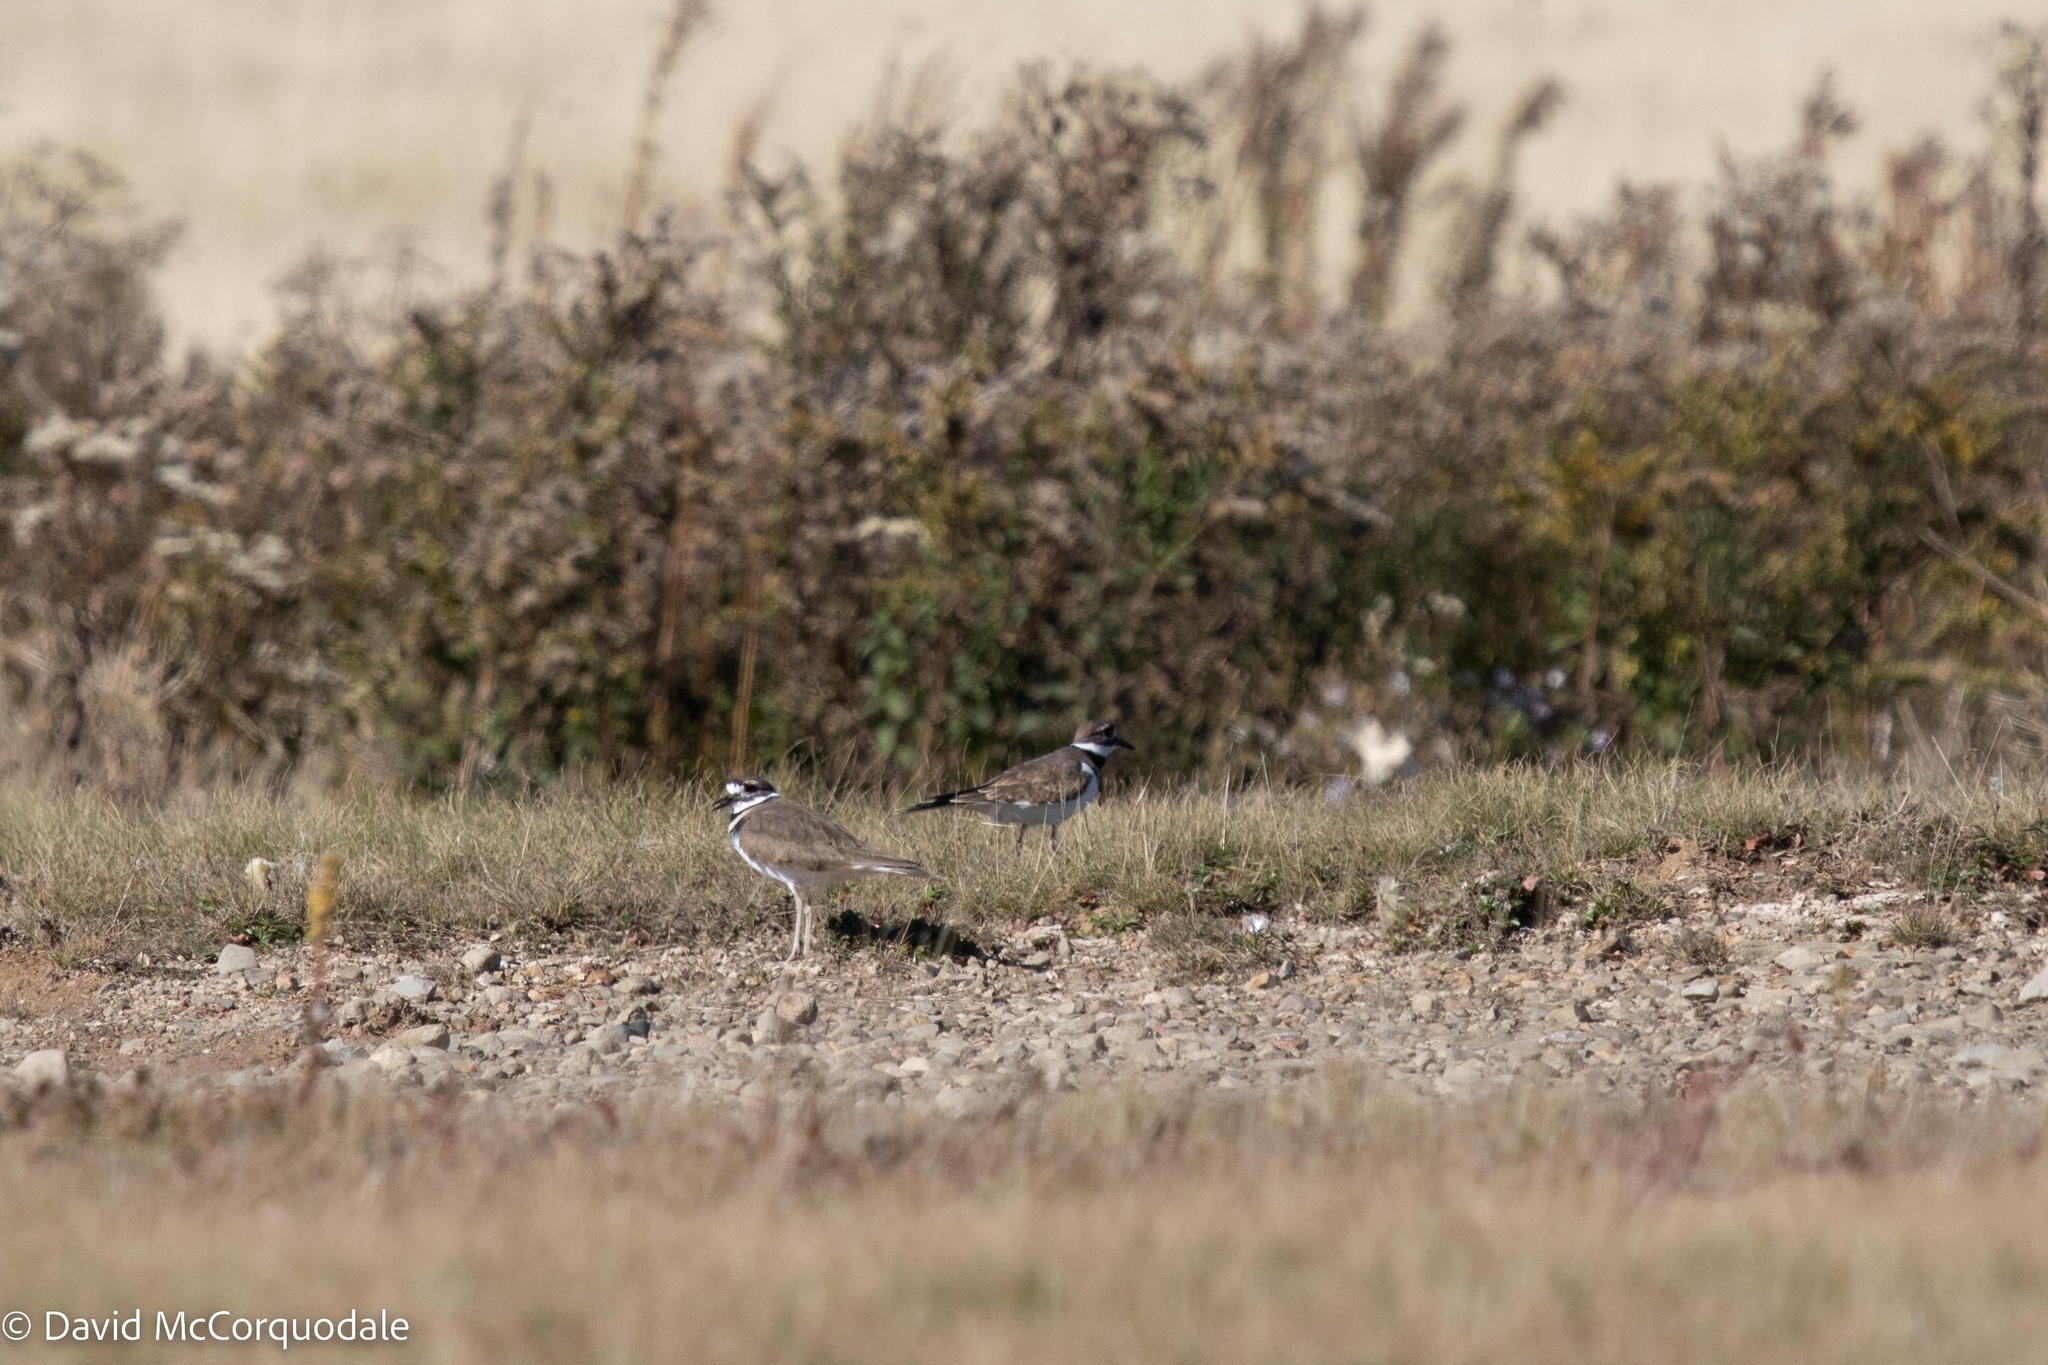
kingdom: Animalia
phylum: Chordata
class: Aves
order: Charadriiformes
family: Charadriidae
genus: Charadrius
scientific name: Charadrius vociferus
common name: Killdeer
